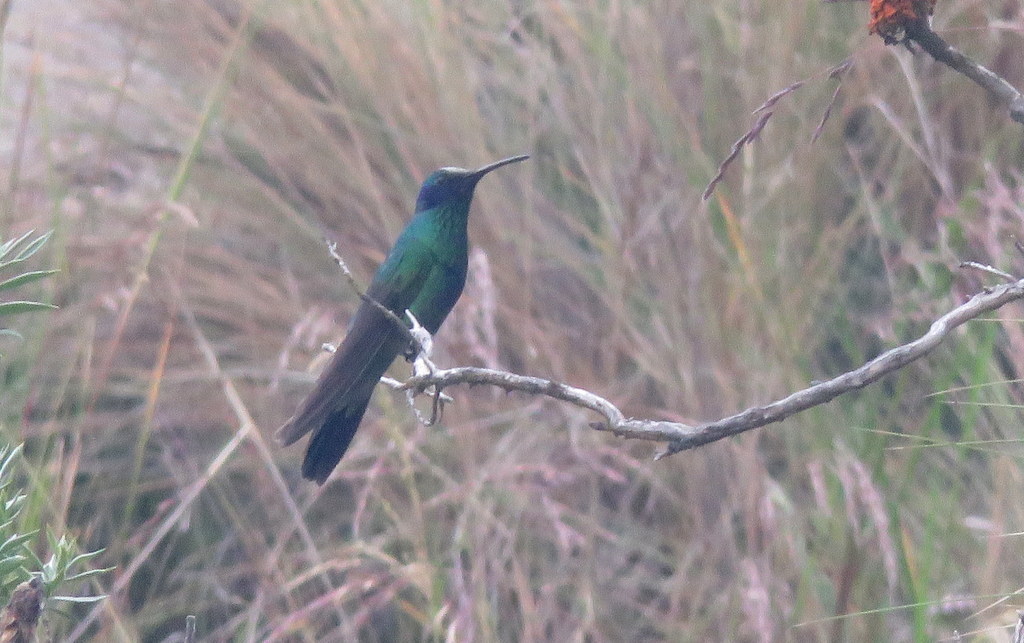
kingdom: Animalia
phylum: Chordata
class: Aves
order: Apodiformes
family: Trochilidae
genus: Colibri
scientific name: Colibri coruscans
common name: Sparkling violetear
